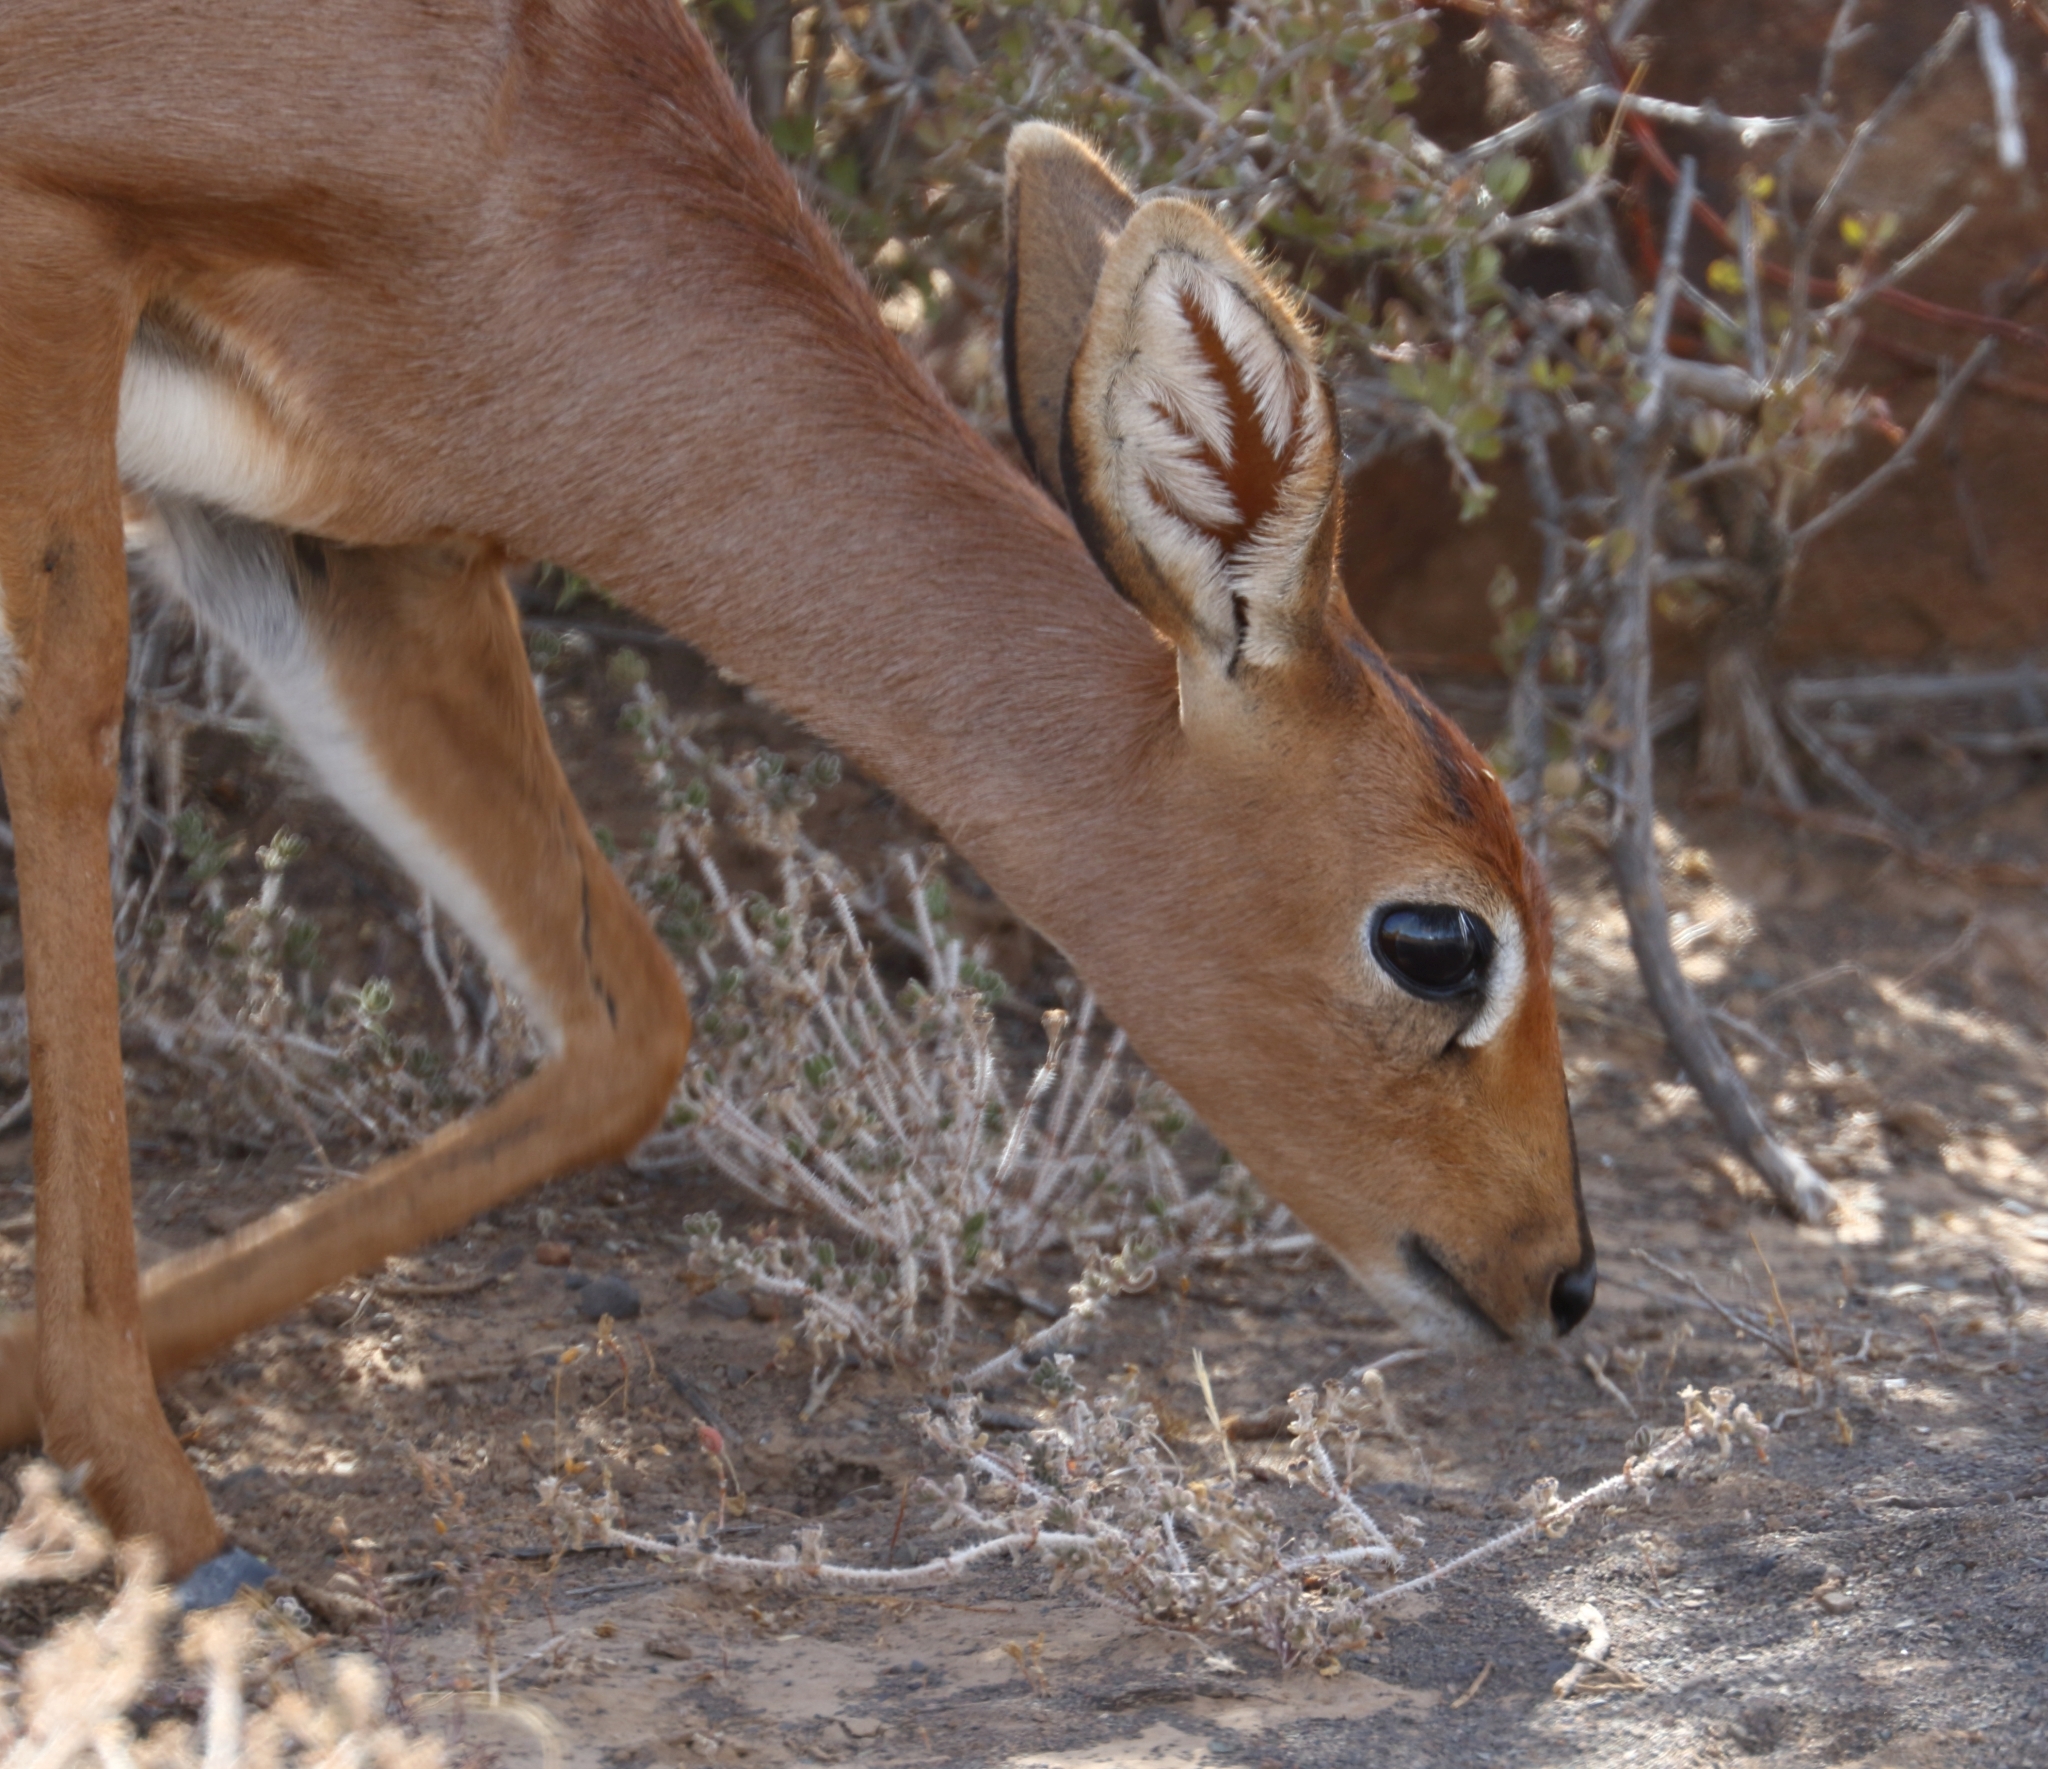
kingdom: Animalia
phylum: Chordata
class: Mammalia
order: Artiodactyla
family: Bovidae
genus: Raphicerus
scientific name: Raphicerus campestris
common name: Steenbok
